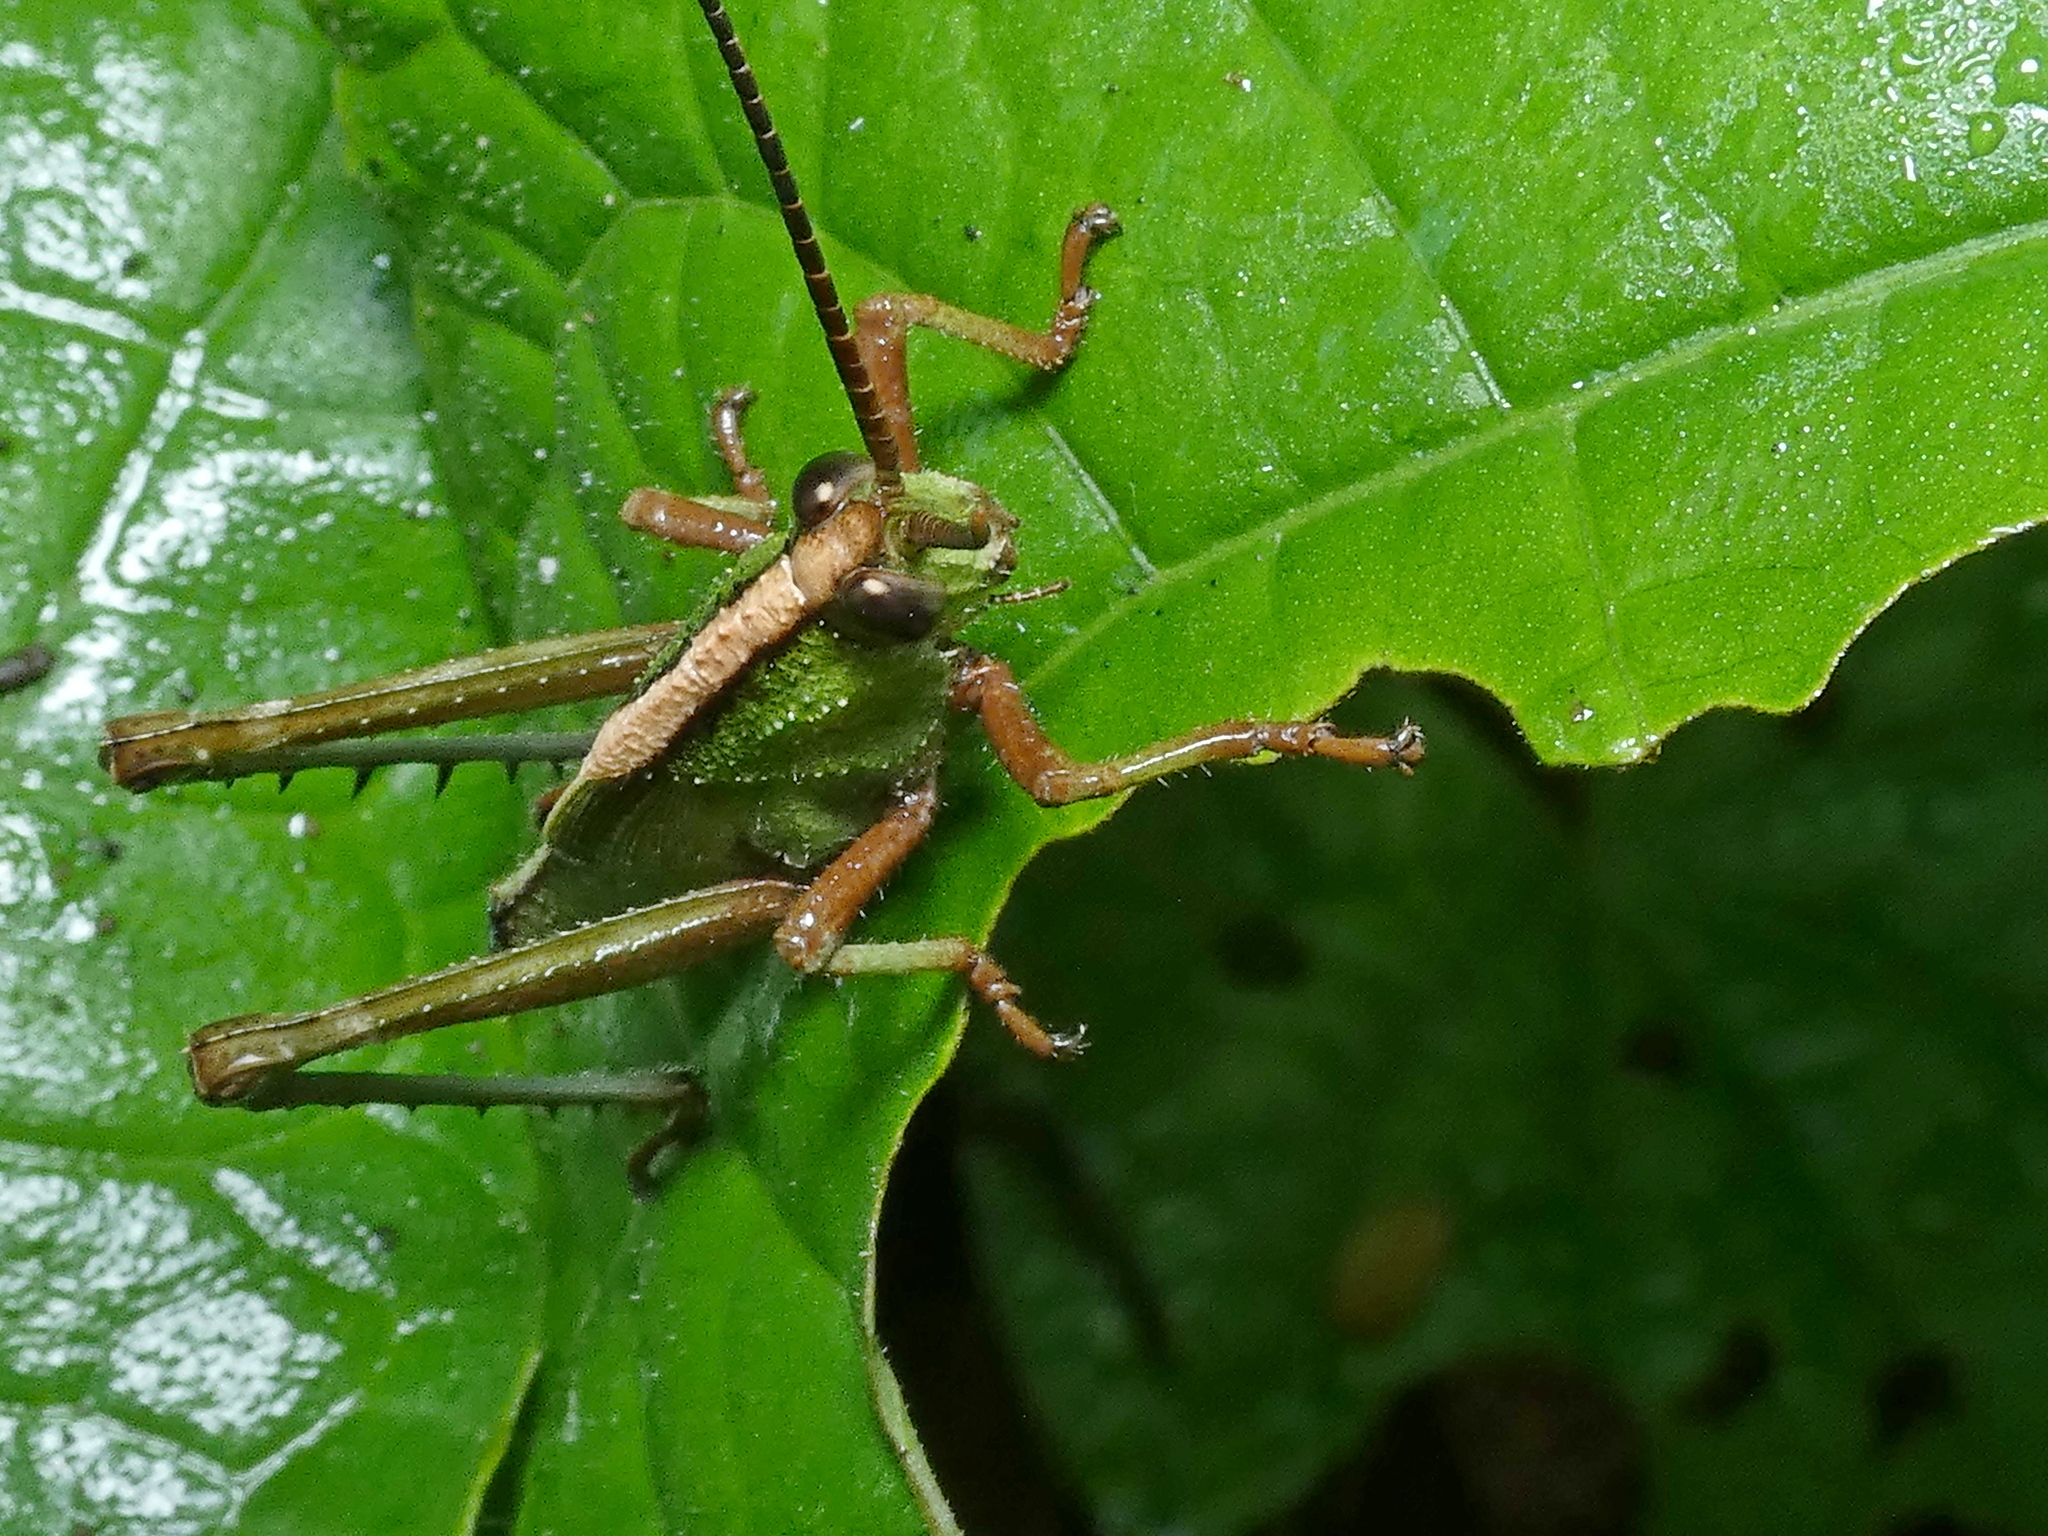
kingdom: Animalia
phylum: Arthropoda
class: Insecta
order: Orthoptera
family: Romaleidae
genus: Agriacris
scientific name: Agriacris auripennis
